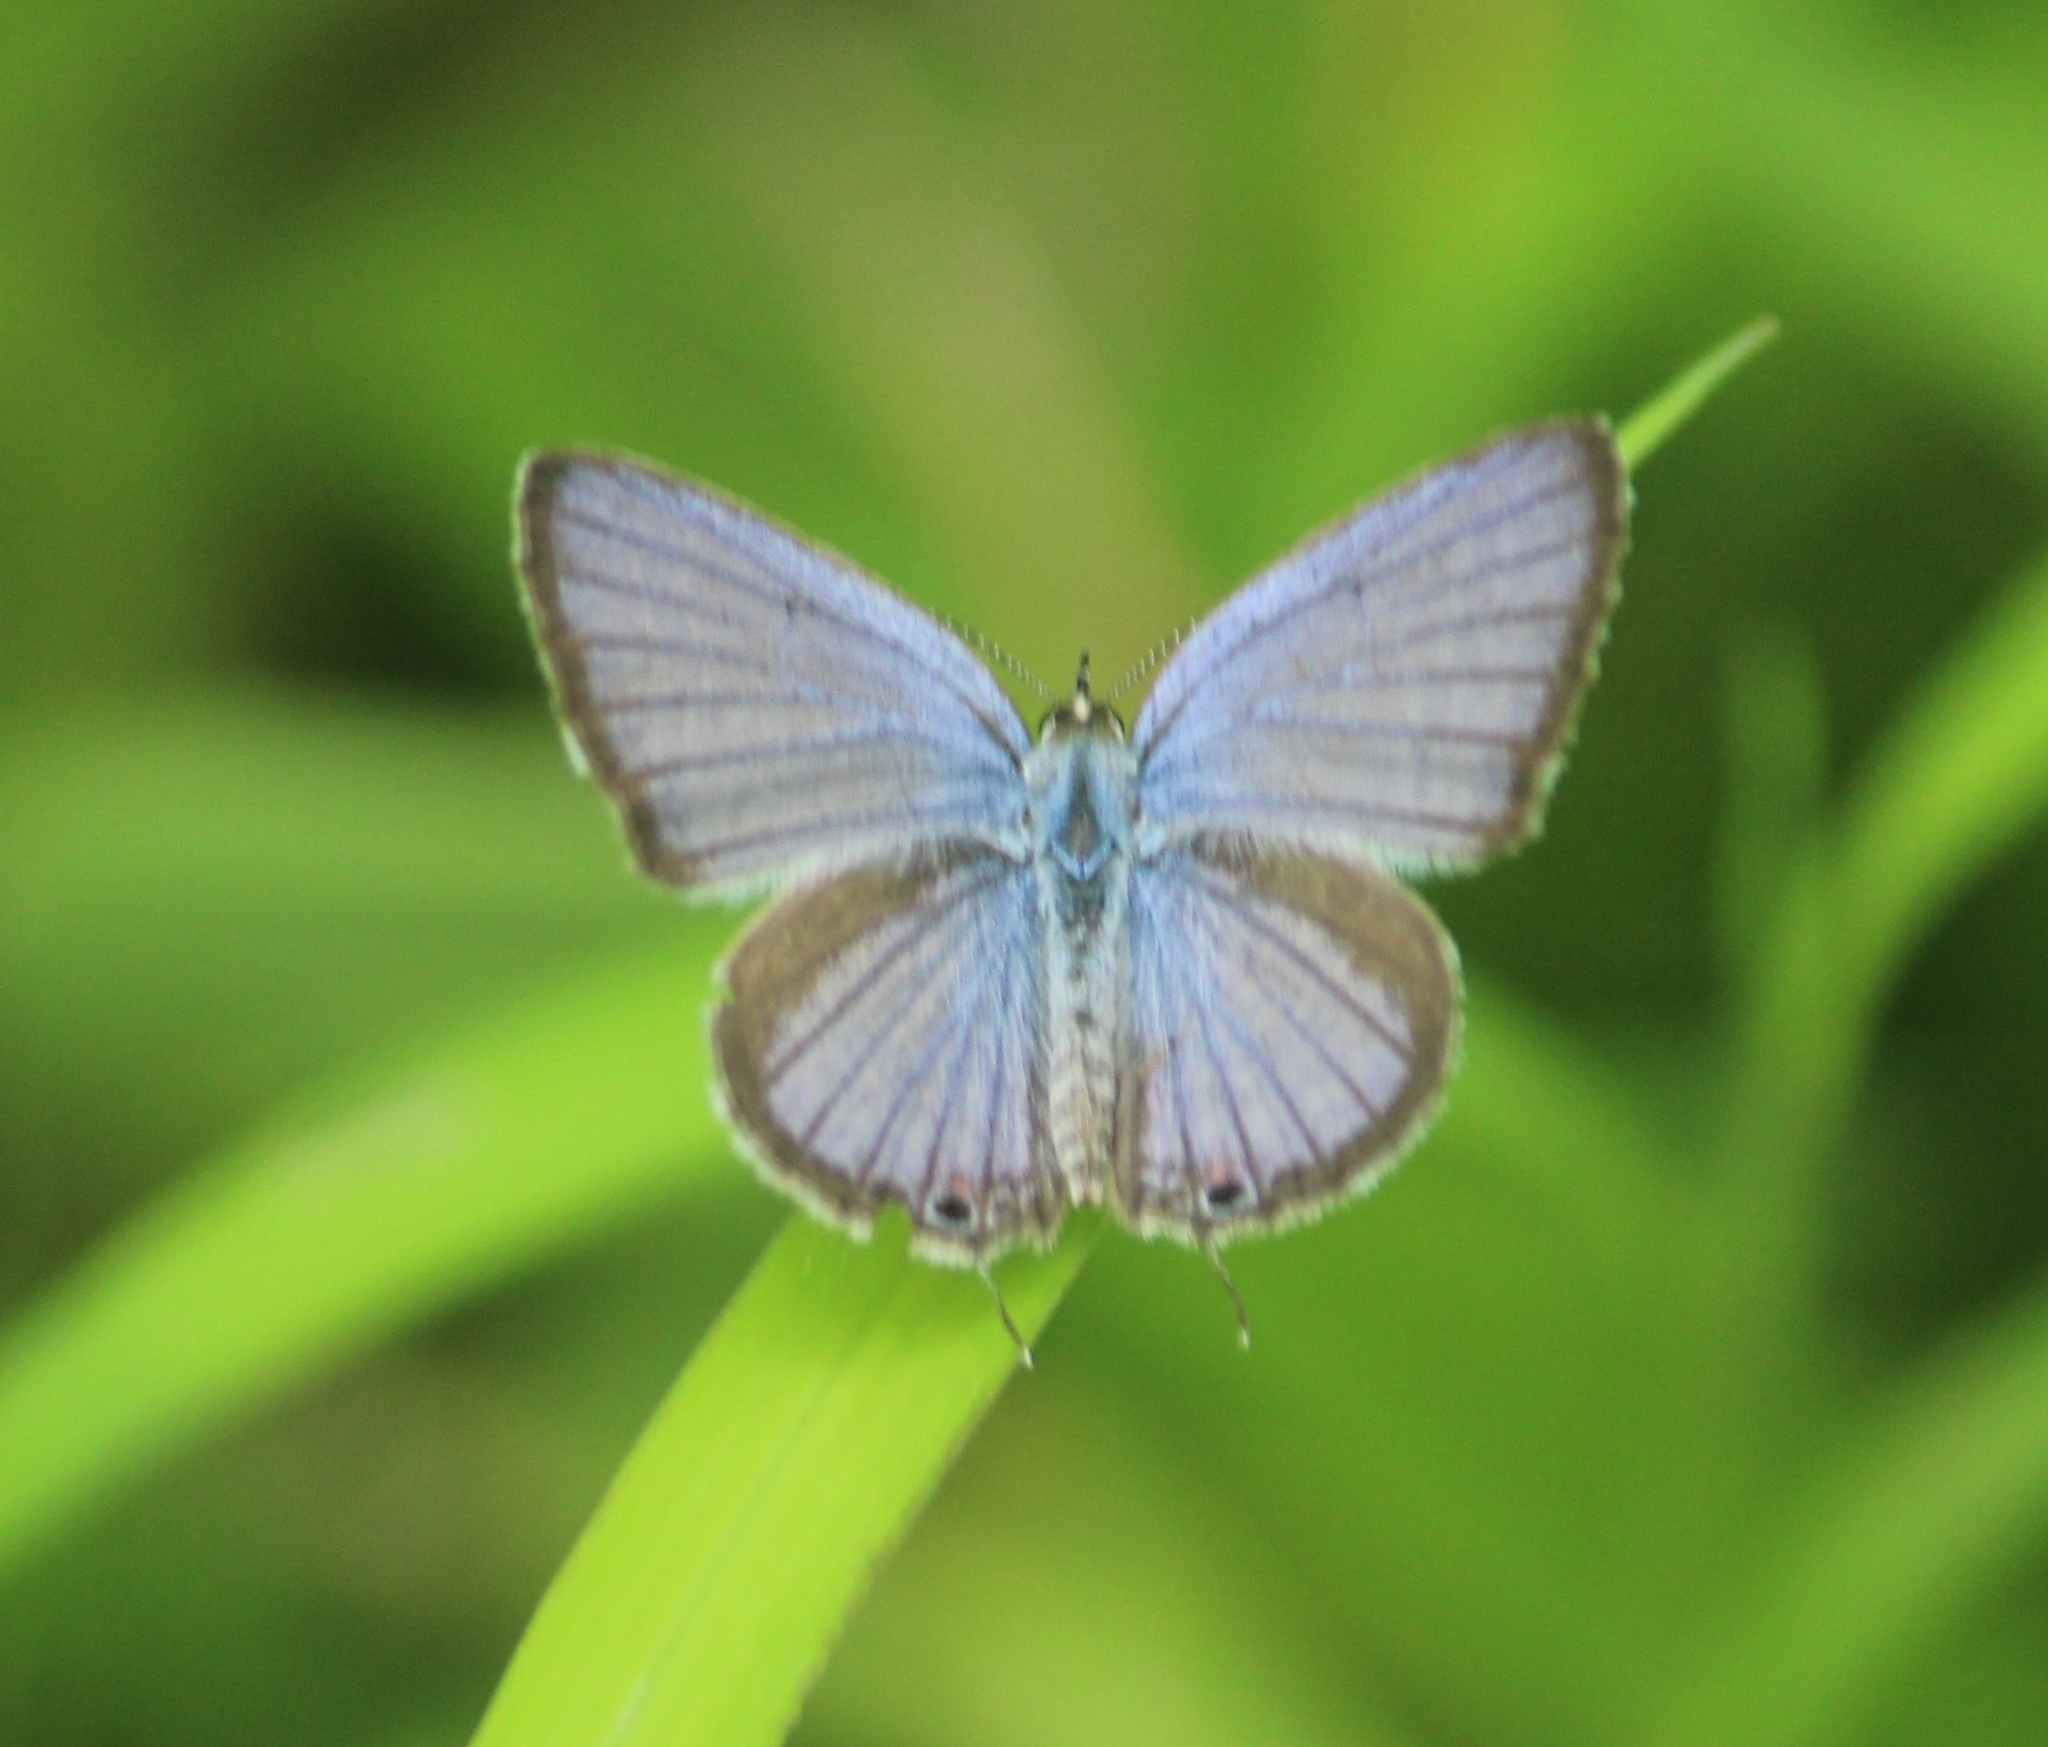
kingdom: Animalia
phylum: Arthropoda
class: Insecta
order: Lepidoptera
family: Lycaenidae
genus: Luthrodes
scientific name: Luthrodes pandava
